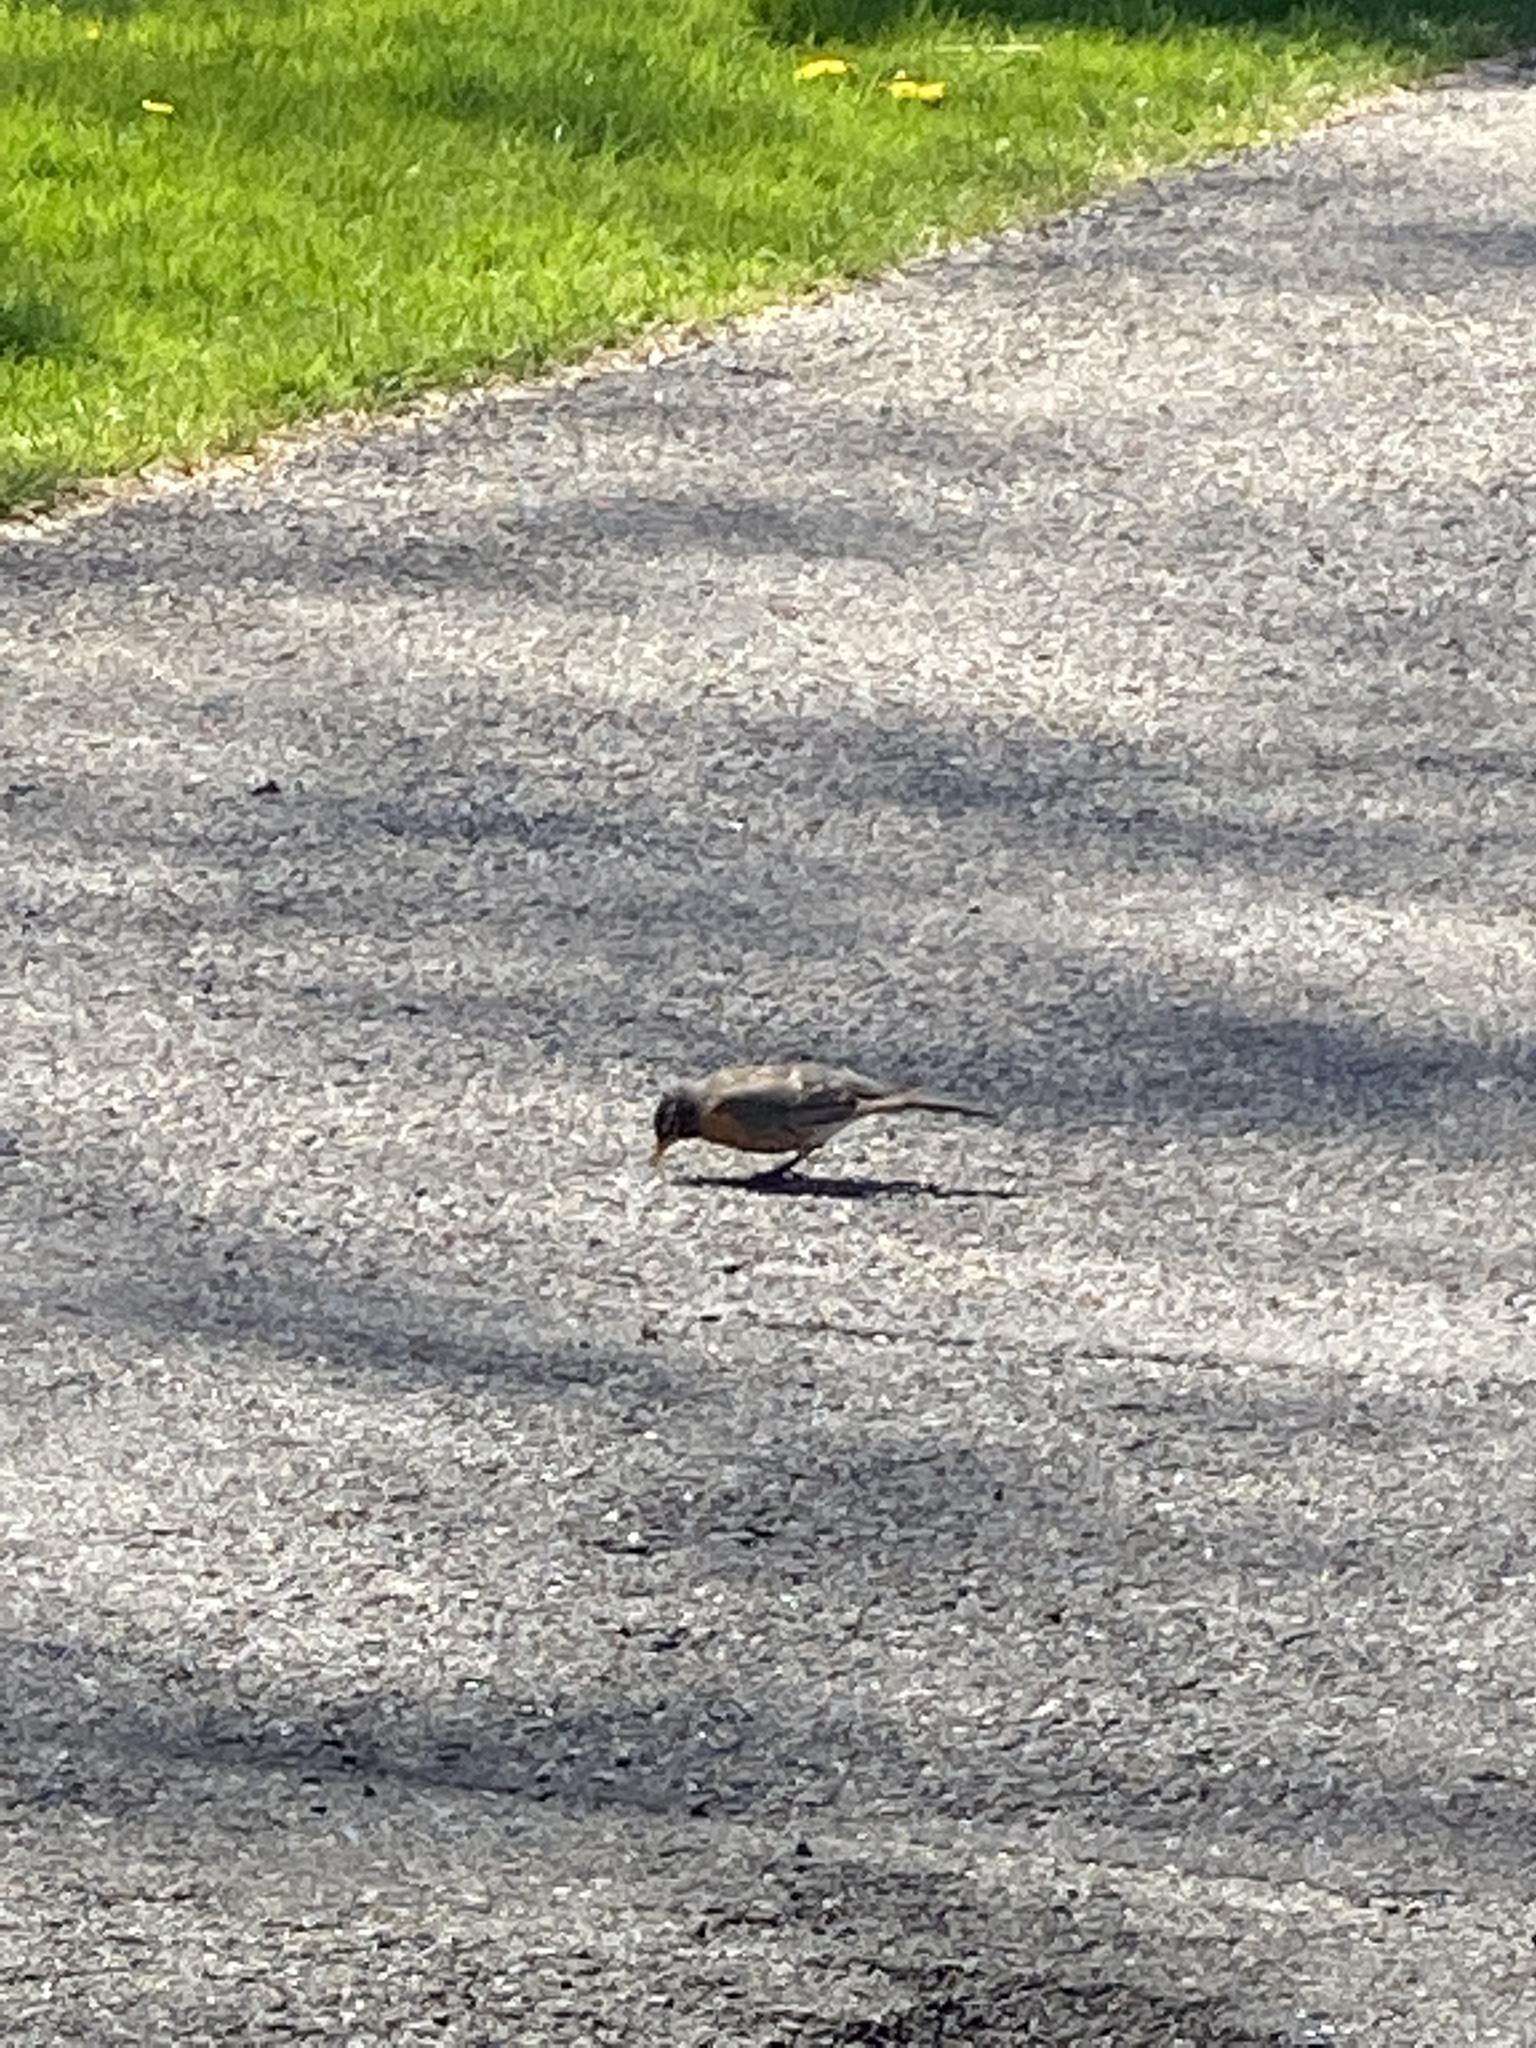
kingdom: Animalia
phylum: Chordata
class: Aves
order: Passeriformes
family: Turdidae
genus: Turdus
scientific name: Turdus migratorius
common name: American robin
